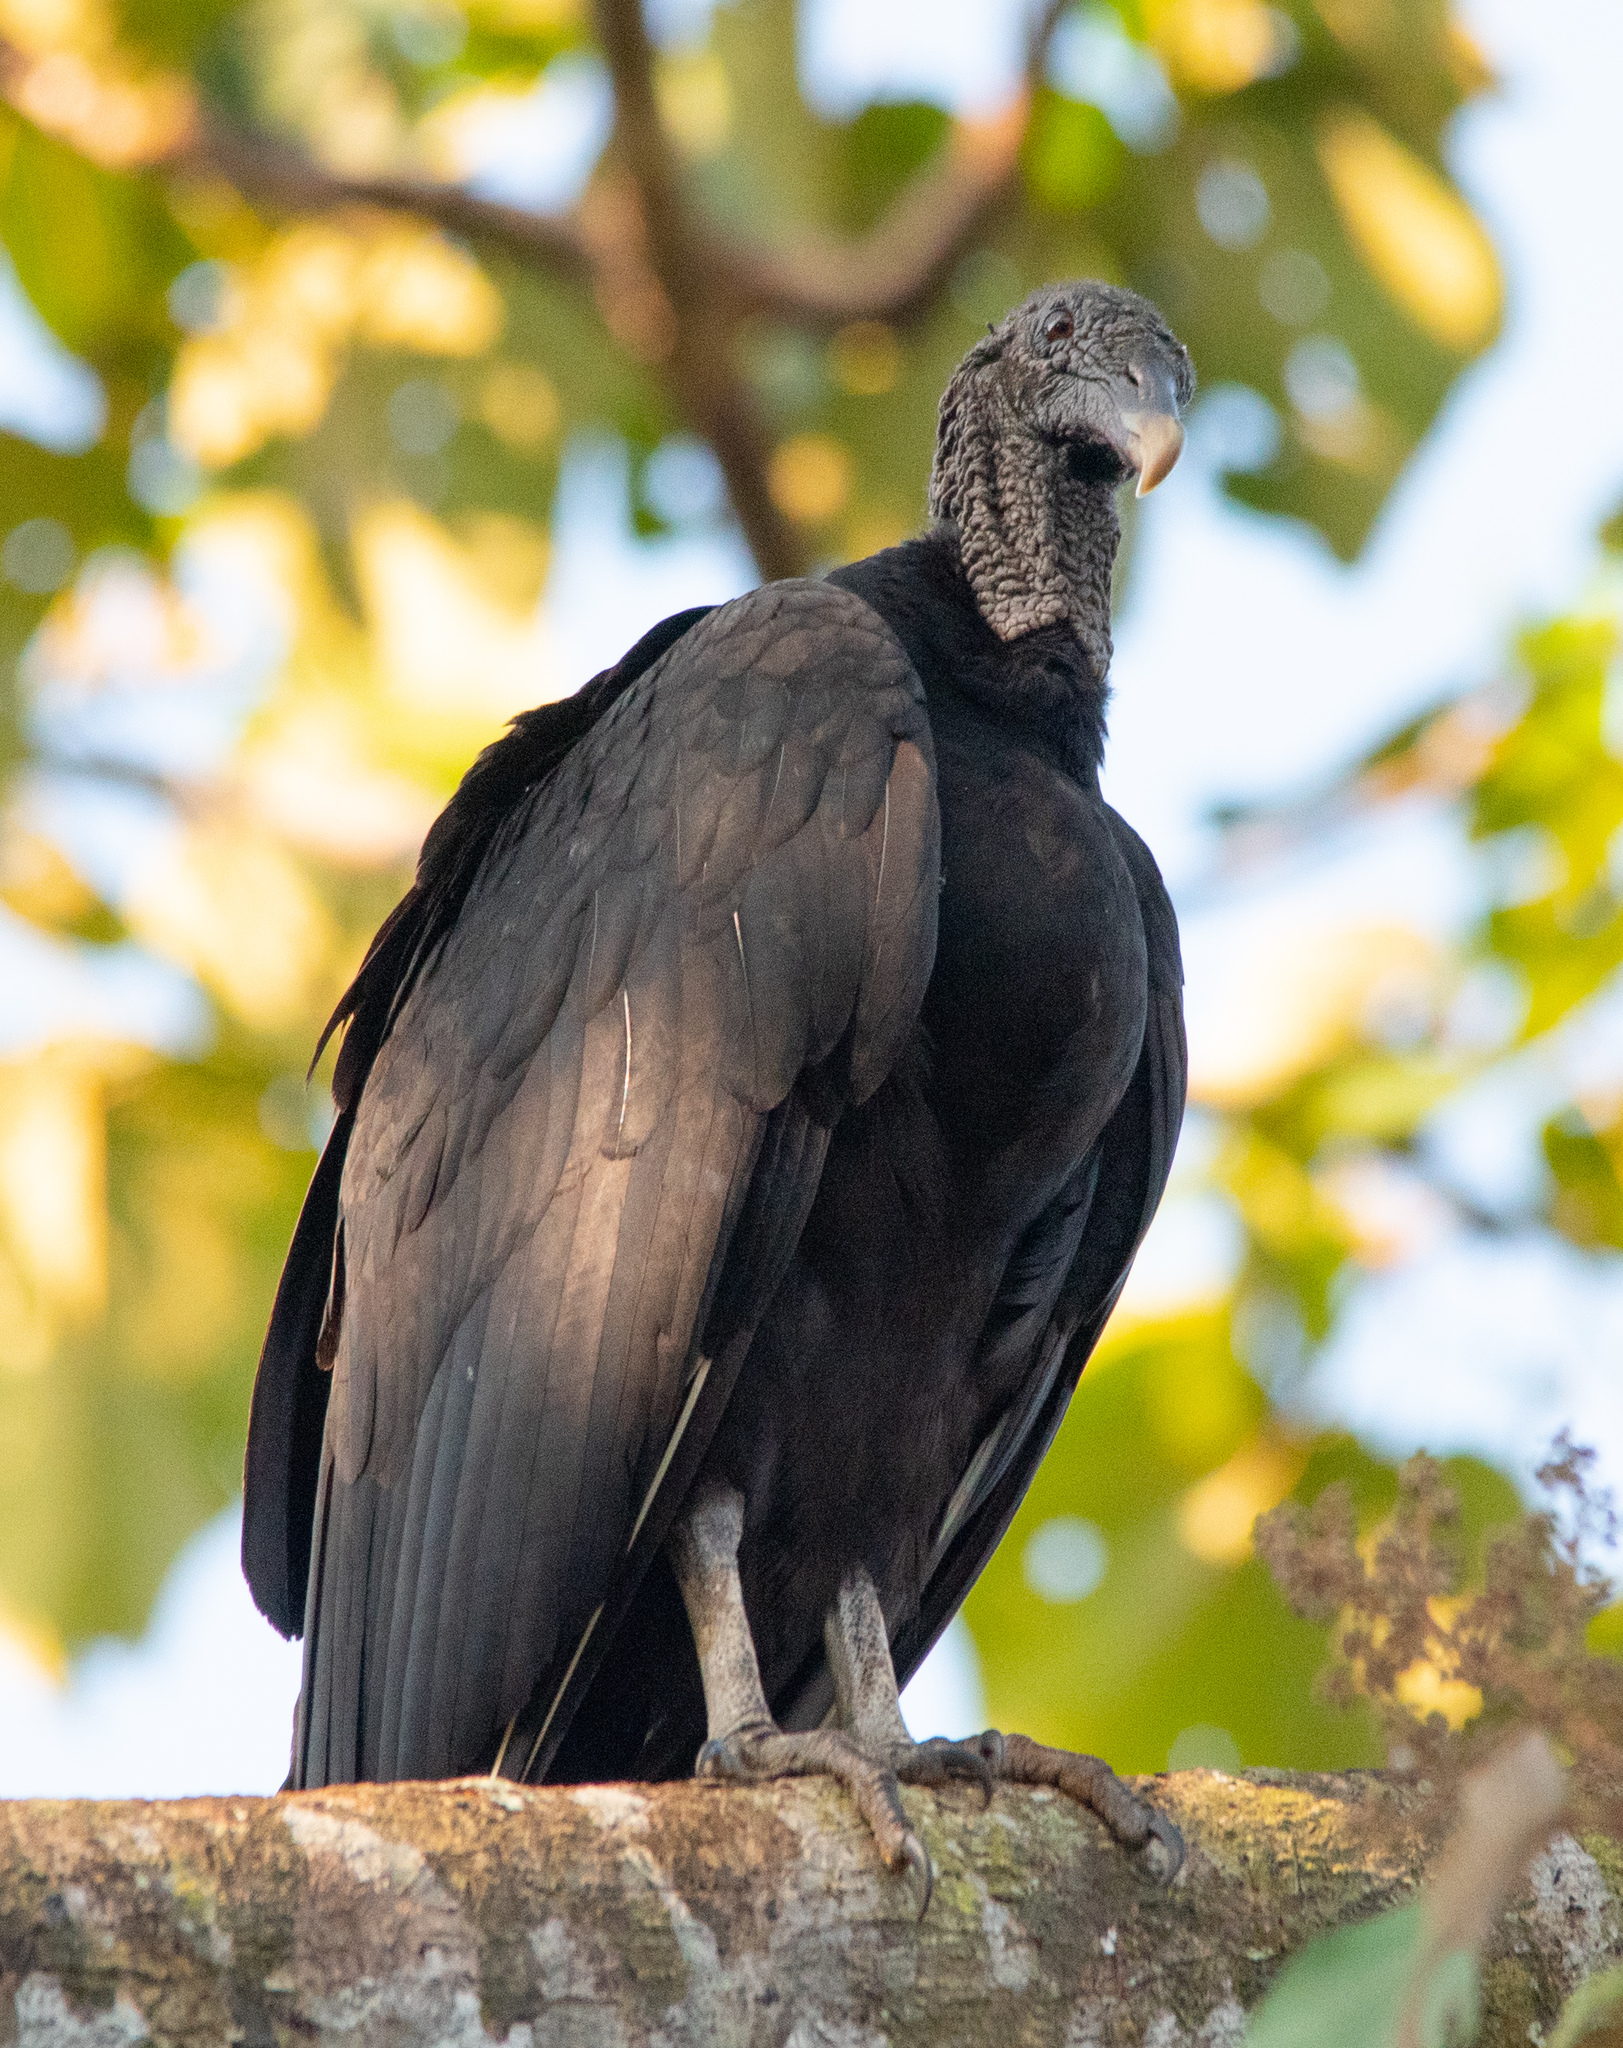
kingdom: Animalia
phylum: Chordata
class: Aves
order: Accipitriformes
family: Cathartidae
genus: Coragyps
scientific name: Coragyps atratus
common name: Black vulture
